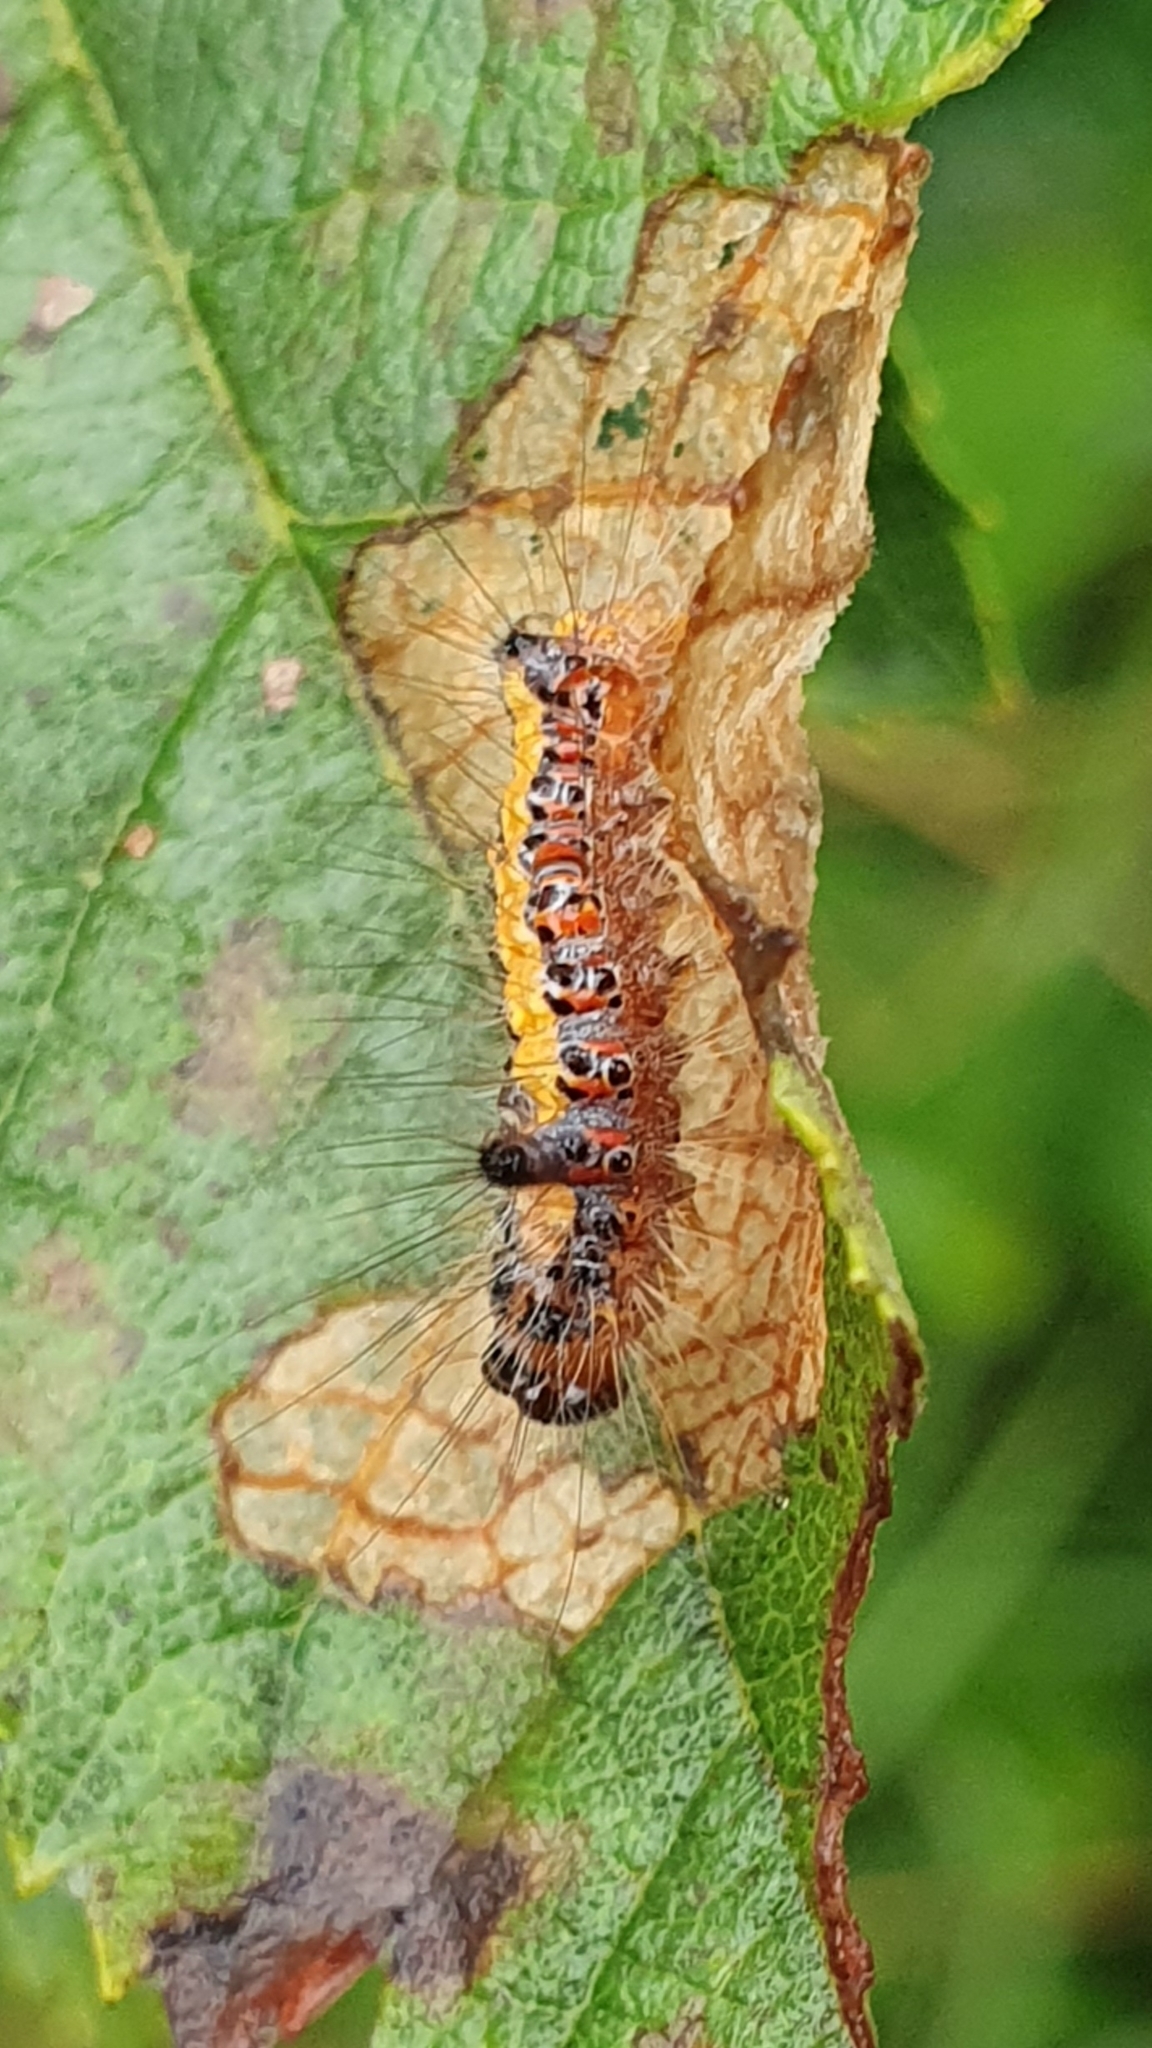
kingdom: Animalia
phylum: Arthropoda
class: Insecta
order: Lepidoptera
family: Noctuidae
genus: Acronicta
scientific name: Acronicta psi
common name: Grey dagger
